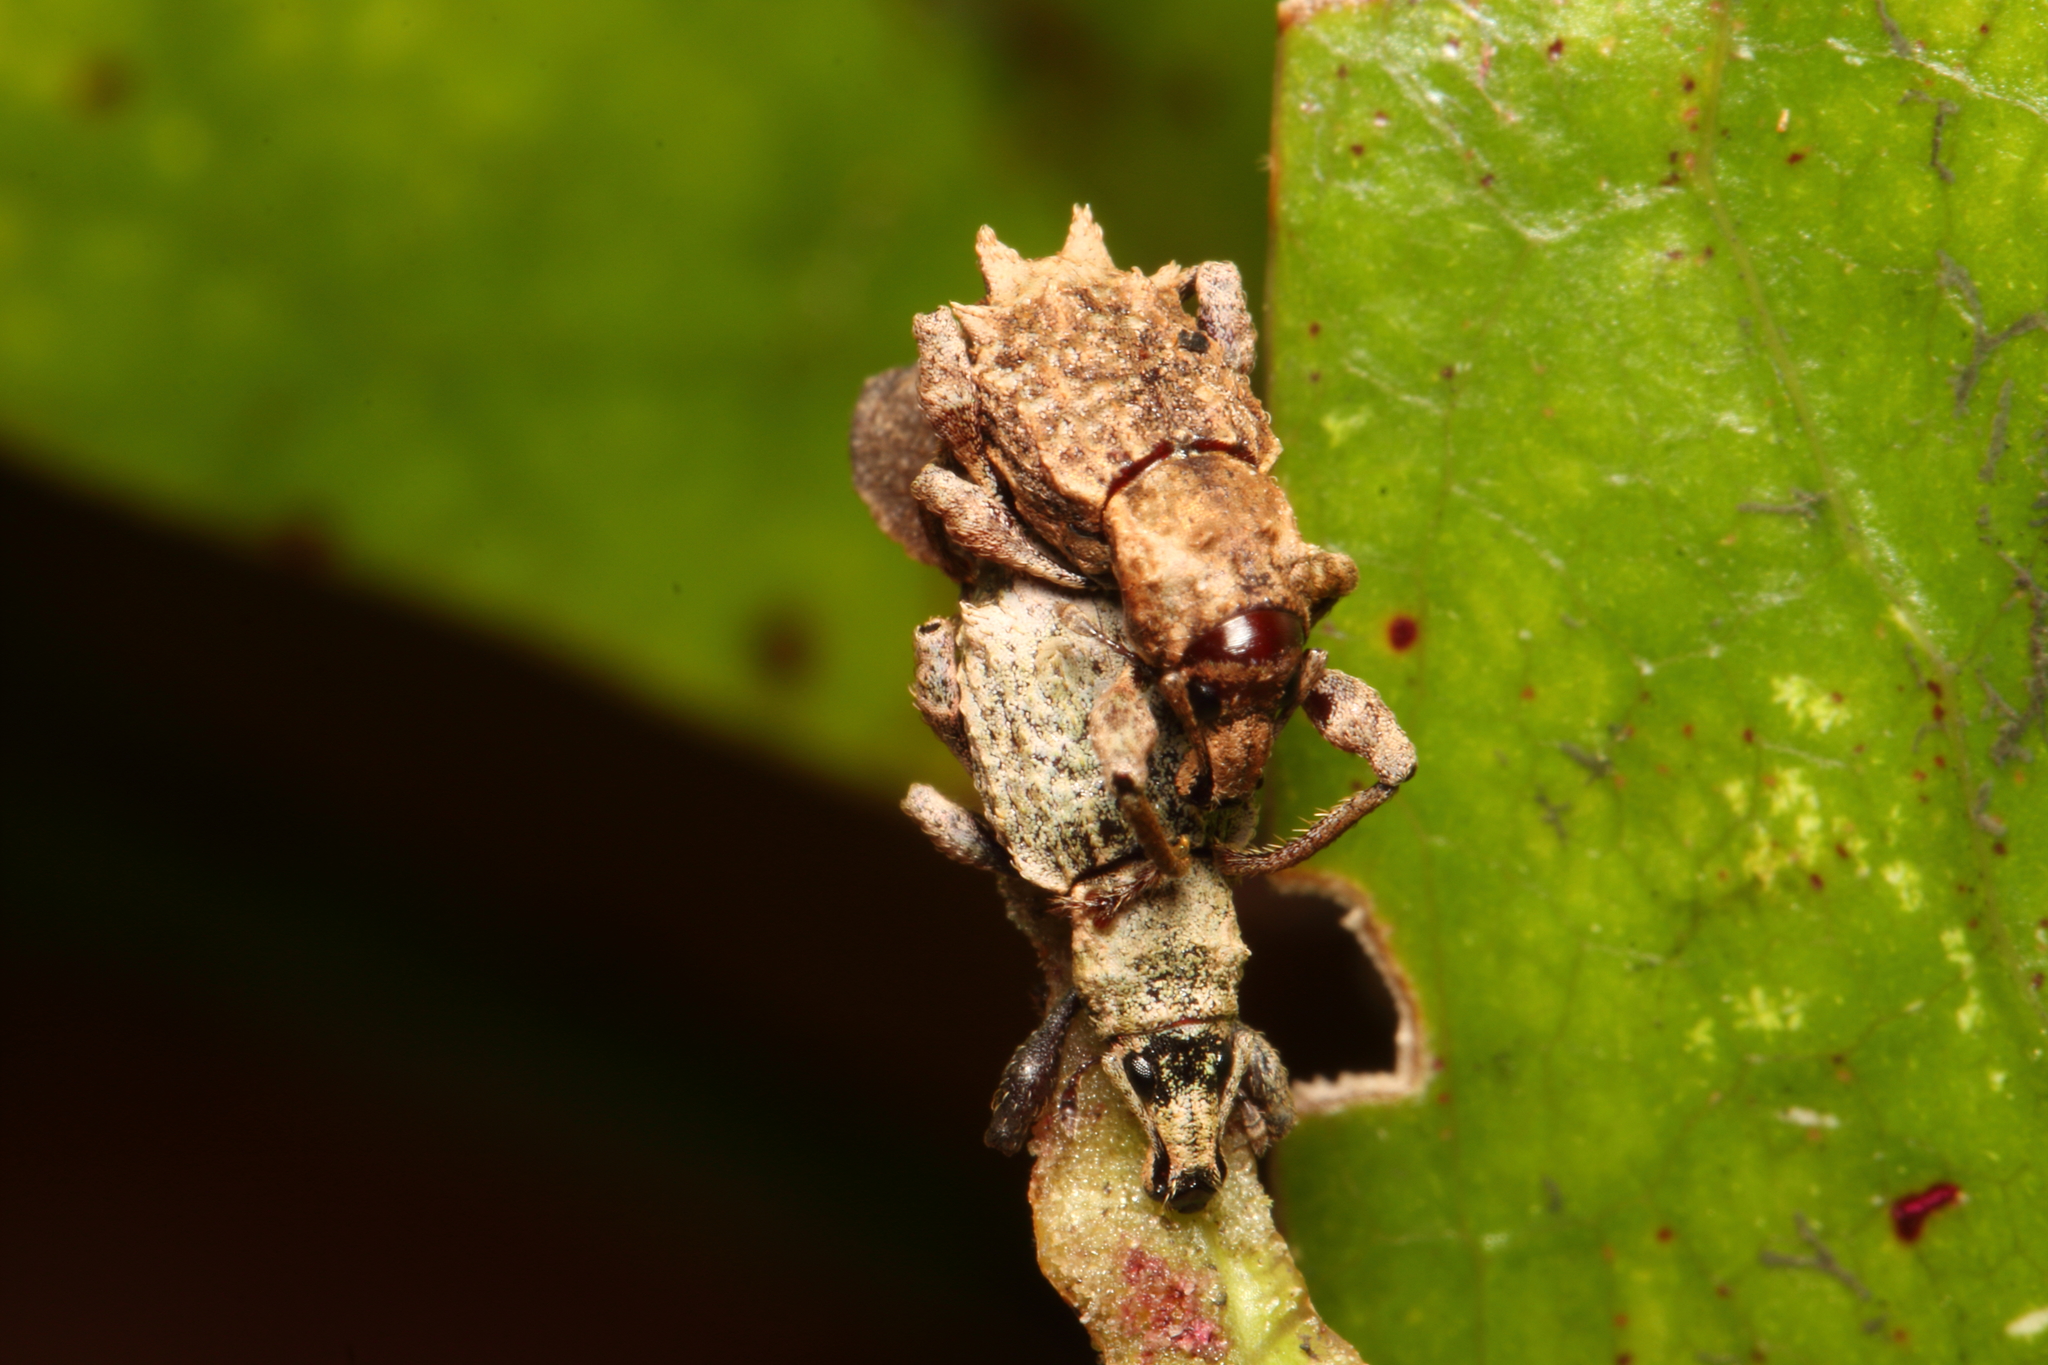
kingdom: Animalia
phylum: Arthropoda
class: Insecta
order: Coleoptera
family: Curculionidae
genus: Catoptes
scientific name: Catoptes coronatus
